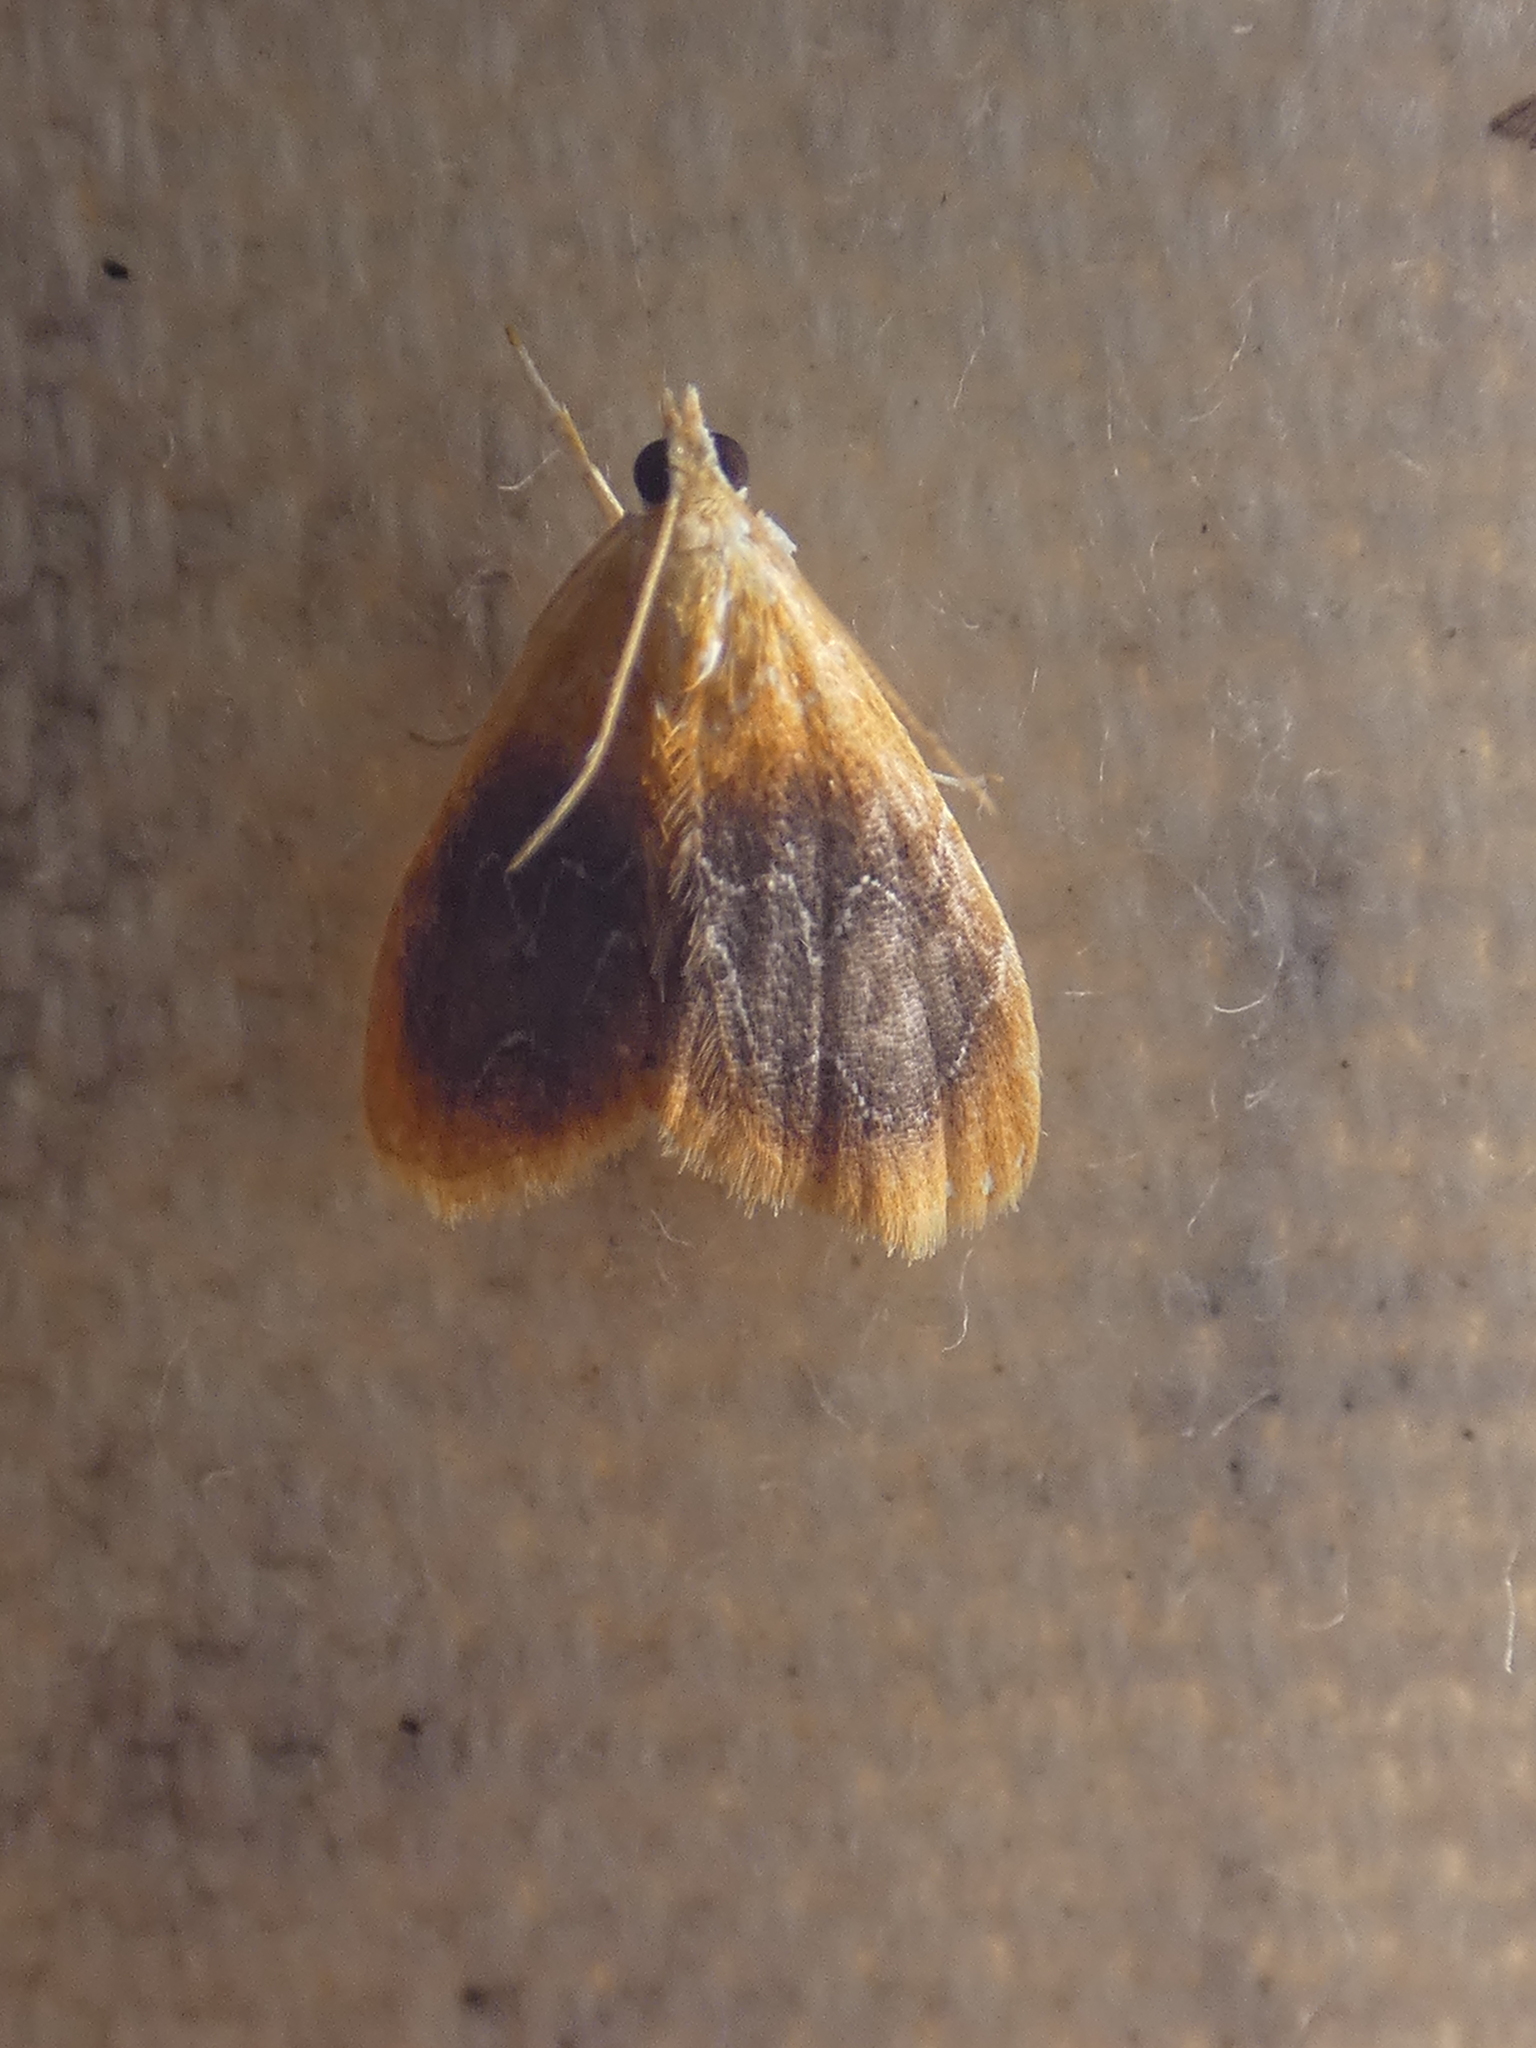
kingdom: Animalia
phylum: Arthropoda
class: Insecta
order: Lepidoptera
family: Crambidae
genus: Glaphyria
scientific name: Glaphyria cappsi
